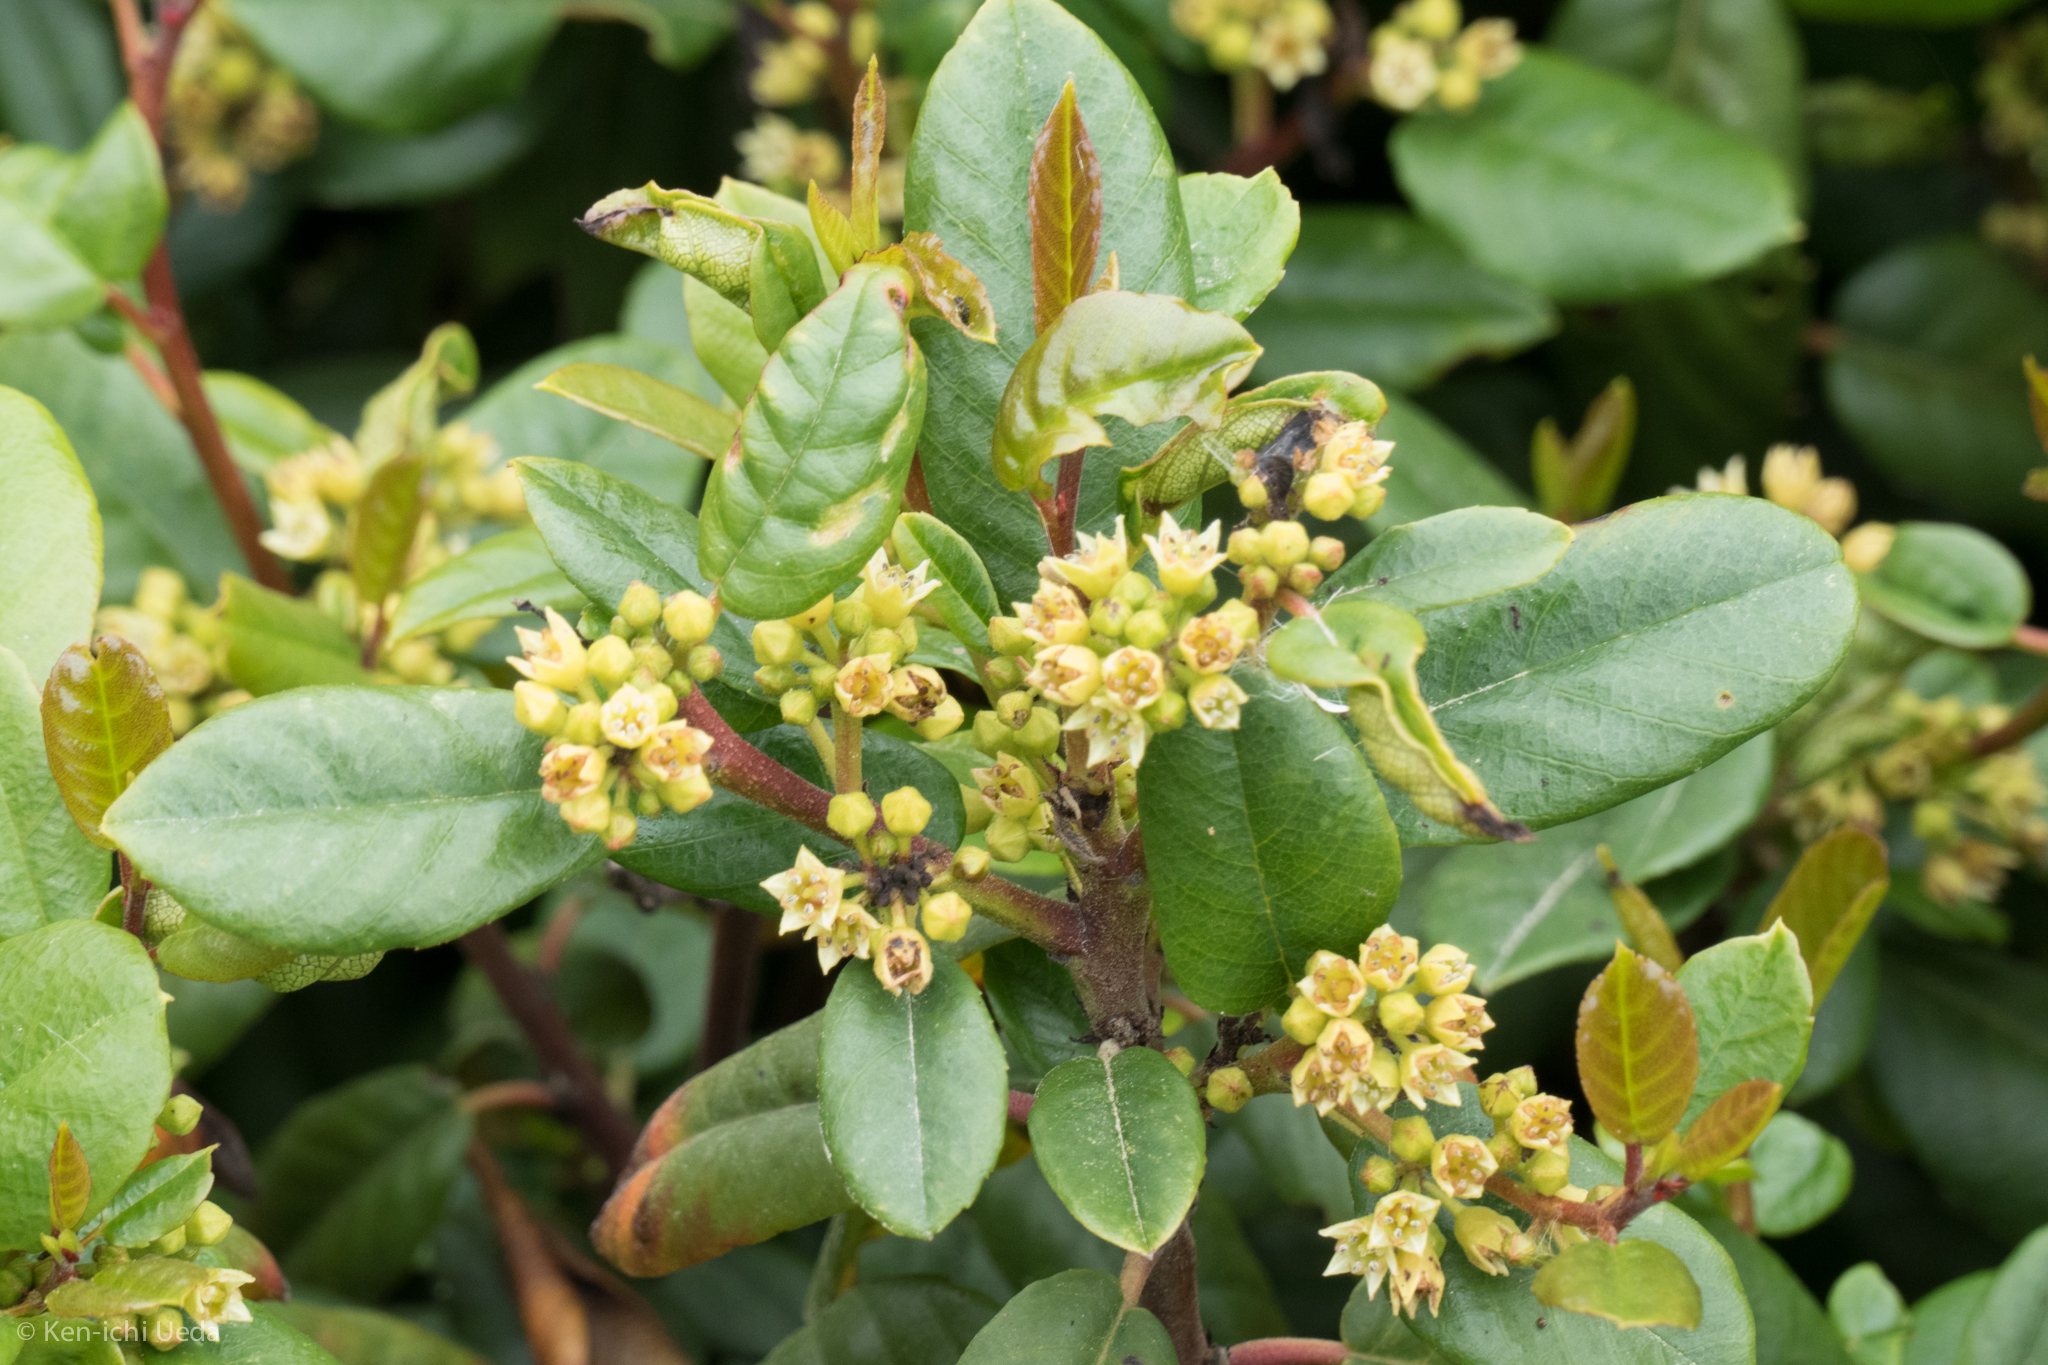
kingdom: Plantae
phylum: Tracheophyta
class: Magnoliopsida
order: Rosales
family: Rhamnaceae
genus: Frangula
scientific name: Frangula californica
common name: California buckthorn
